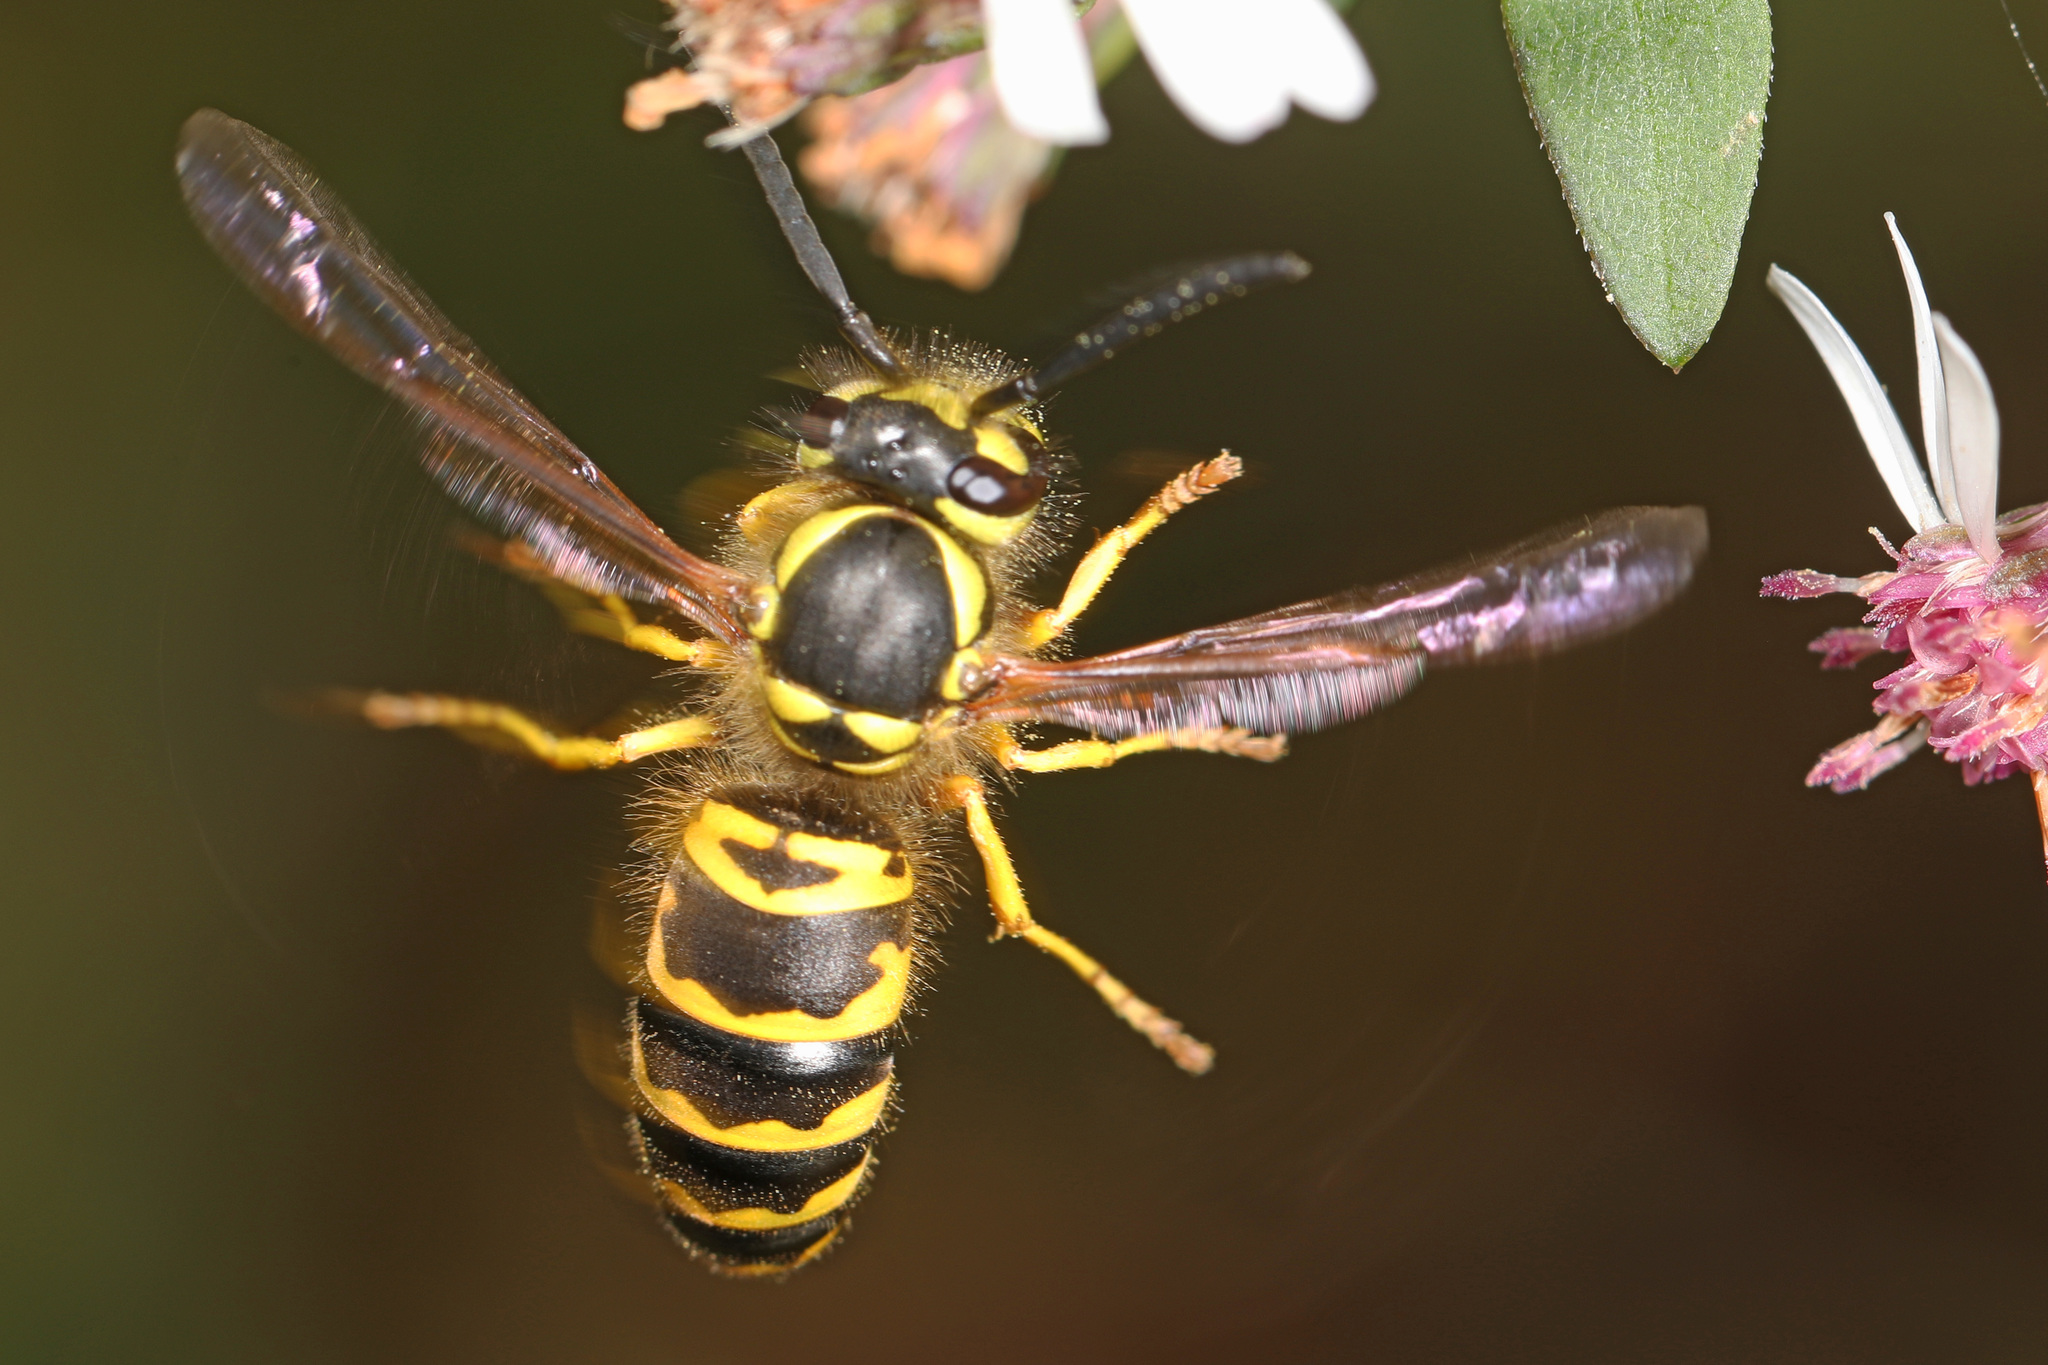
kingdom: Animalia
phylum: Arthropoda
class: Insecta
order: Hymenoptera
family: Vespidae
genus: Vespula
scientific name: Vespula maculifrons
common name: Eastern yellowjacket
